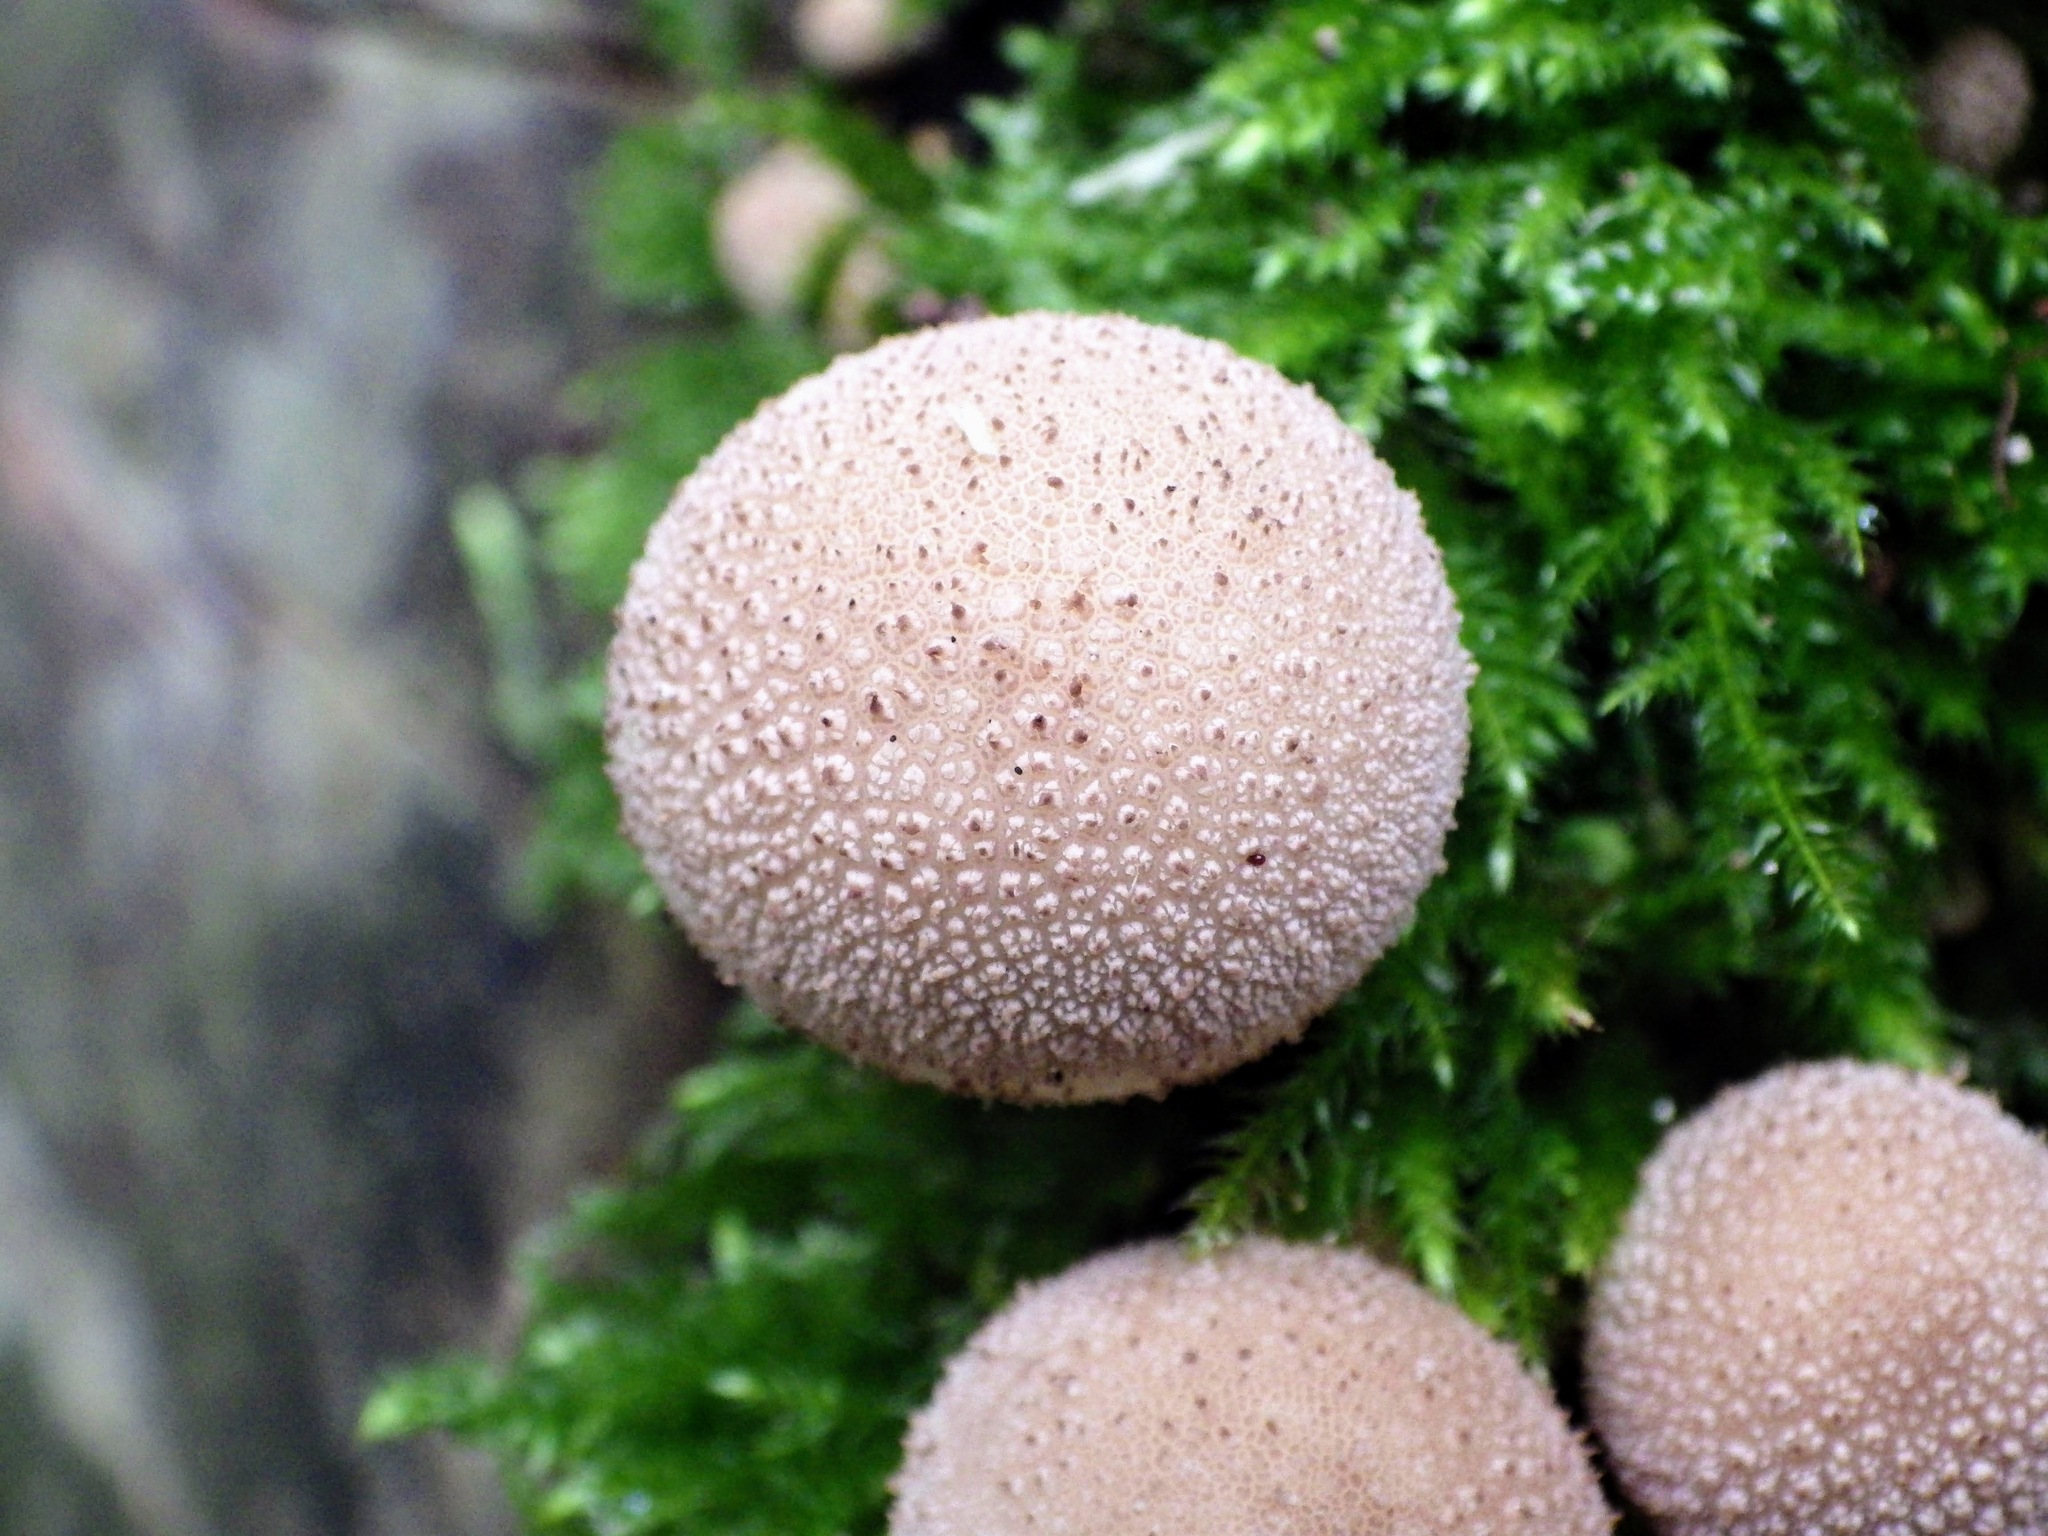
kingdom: Fungi
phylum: Basidiomycota
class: Agaricomycetes
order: Agaricales
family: Lycoperdaceae
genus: Apioperdon
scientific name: Apioperdon pyriforme
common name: Pear-shaped puffball
